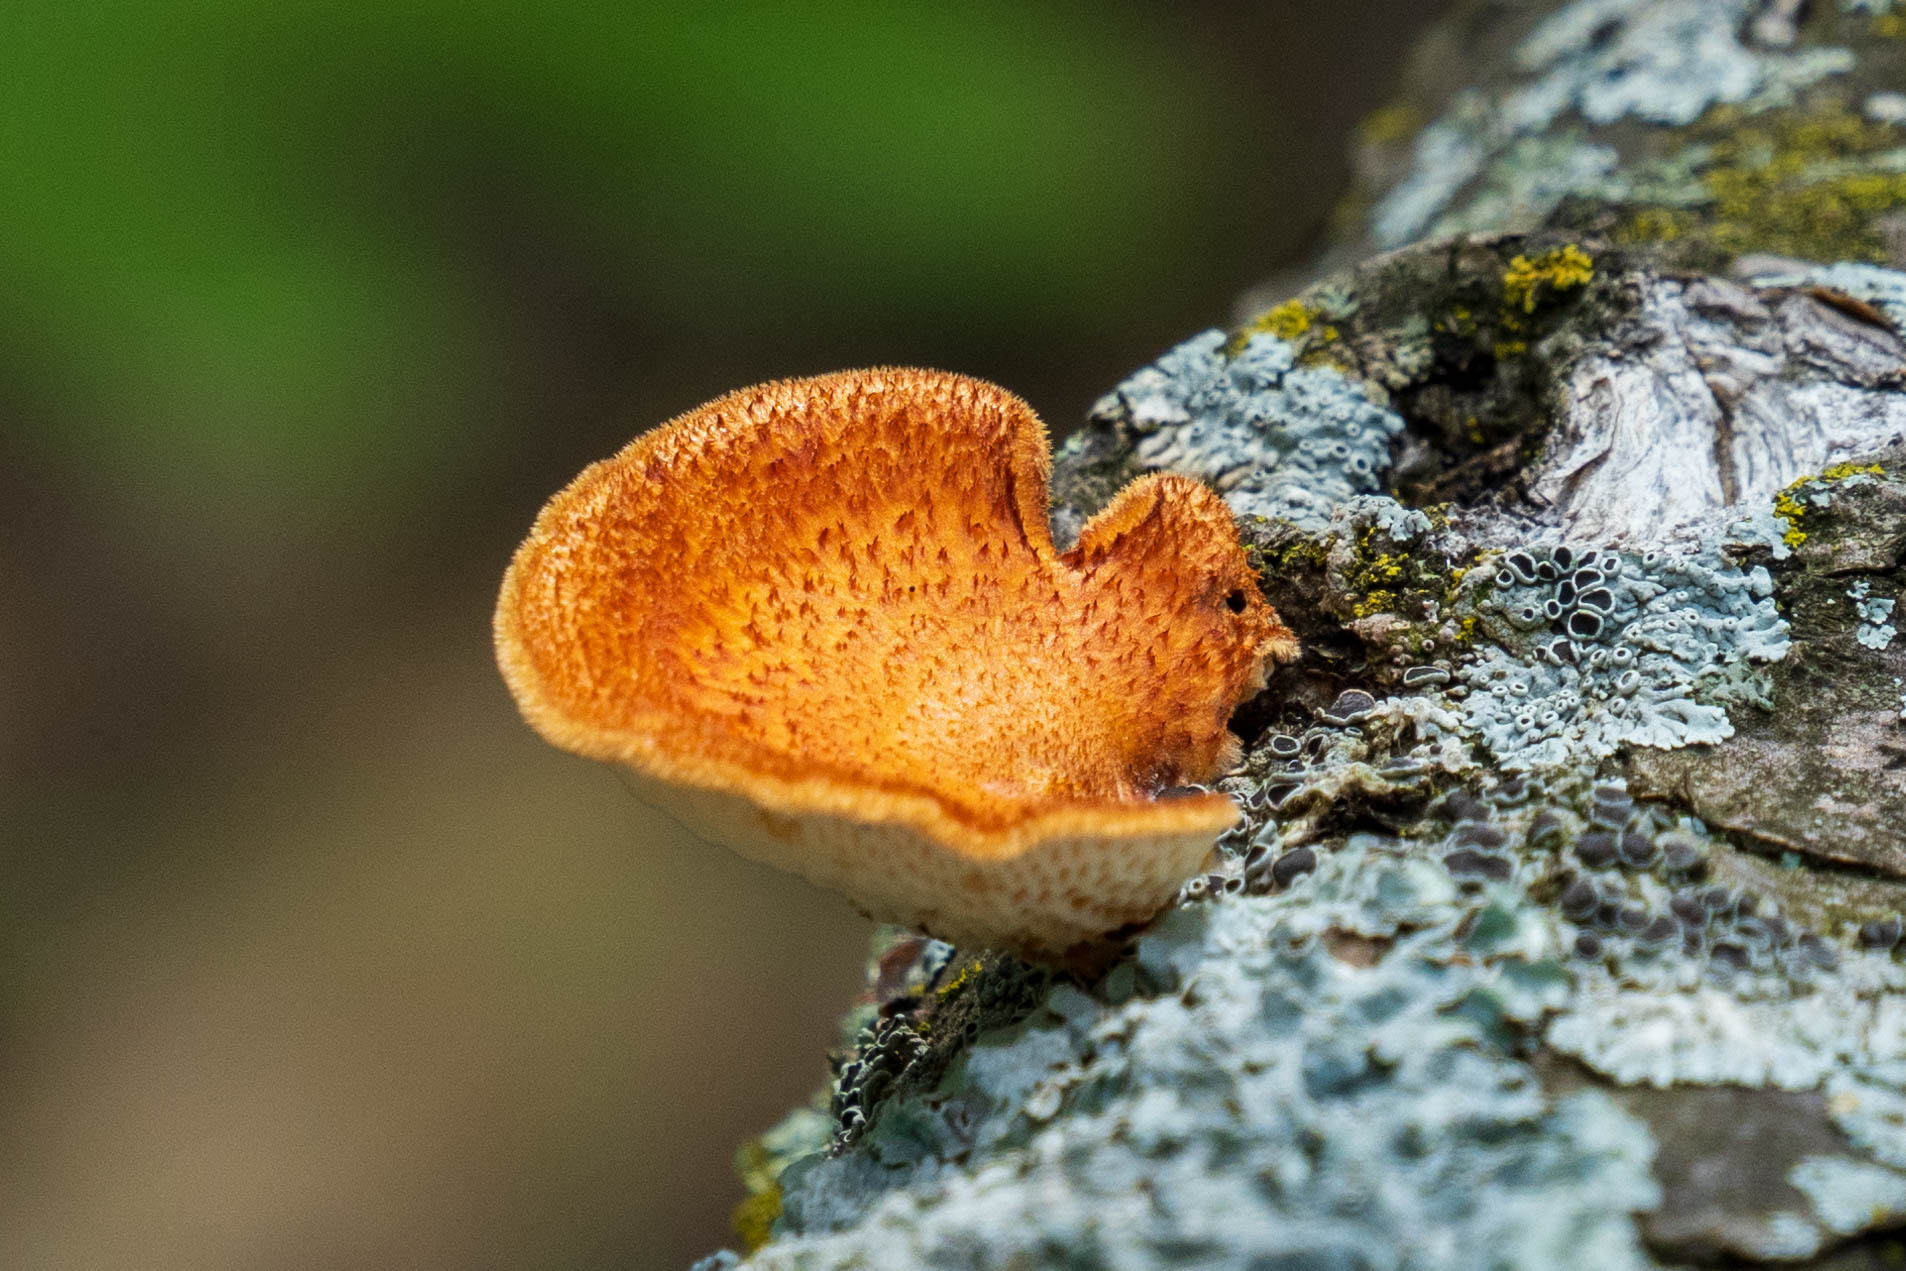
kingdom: Fungi
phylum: Basidiomycota
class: Agaricomycetes
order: Polyporales
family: Polyporaceae
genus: Neofavolus
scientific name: Neofavolus alveolaris
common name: Hexagonal-pored polypore
